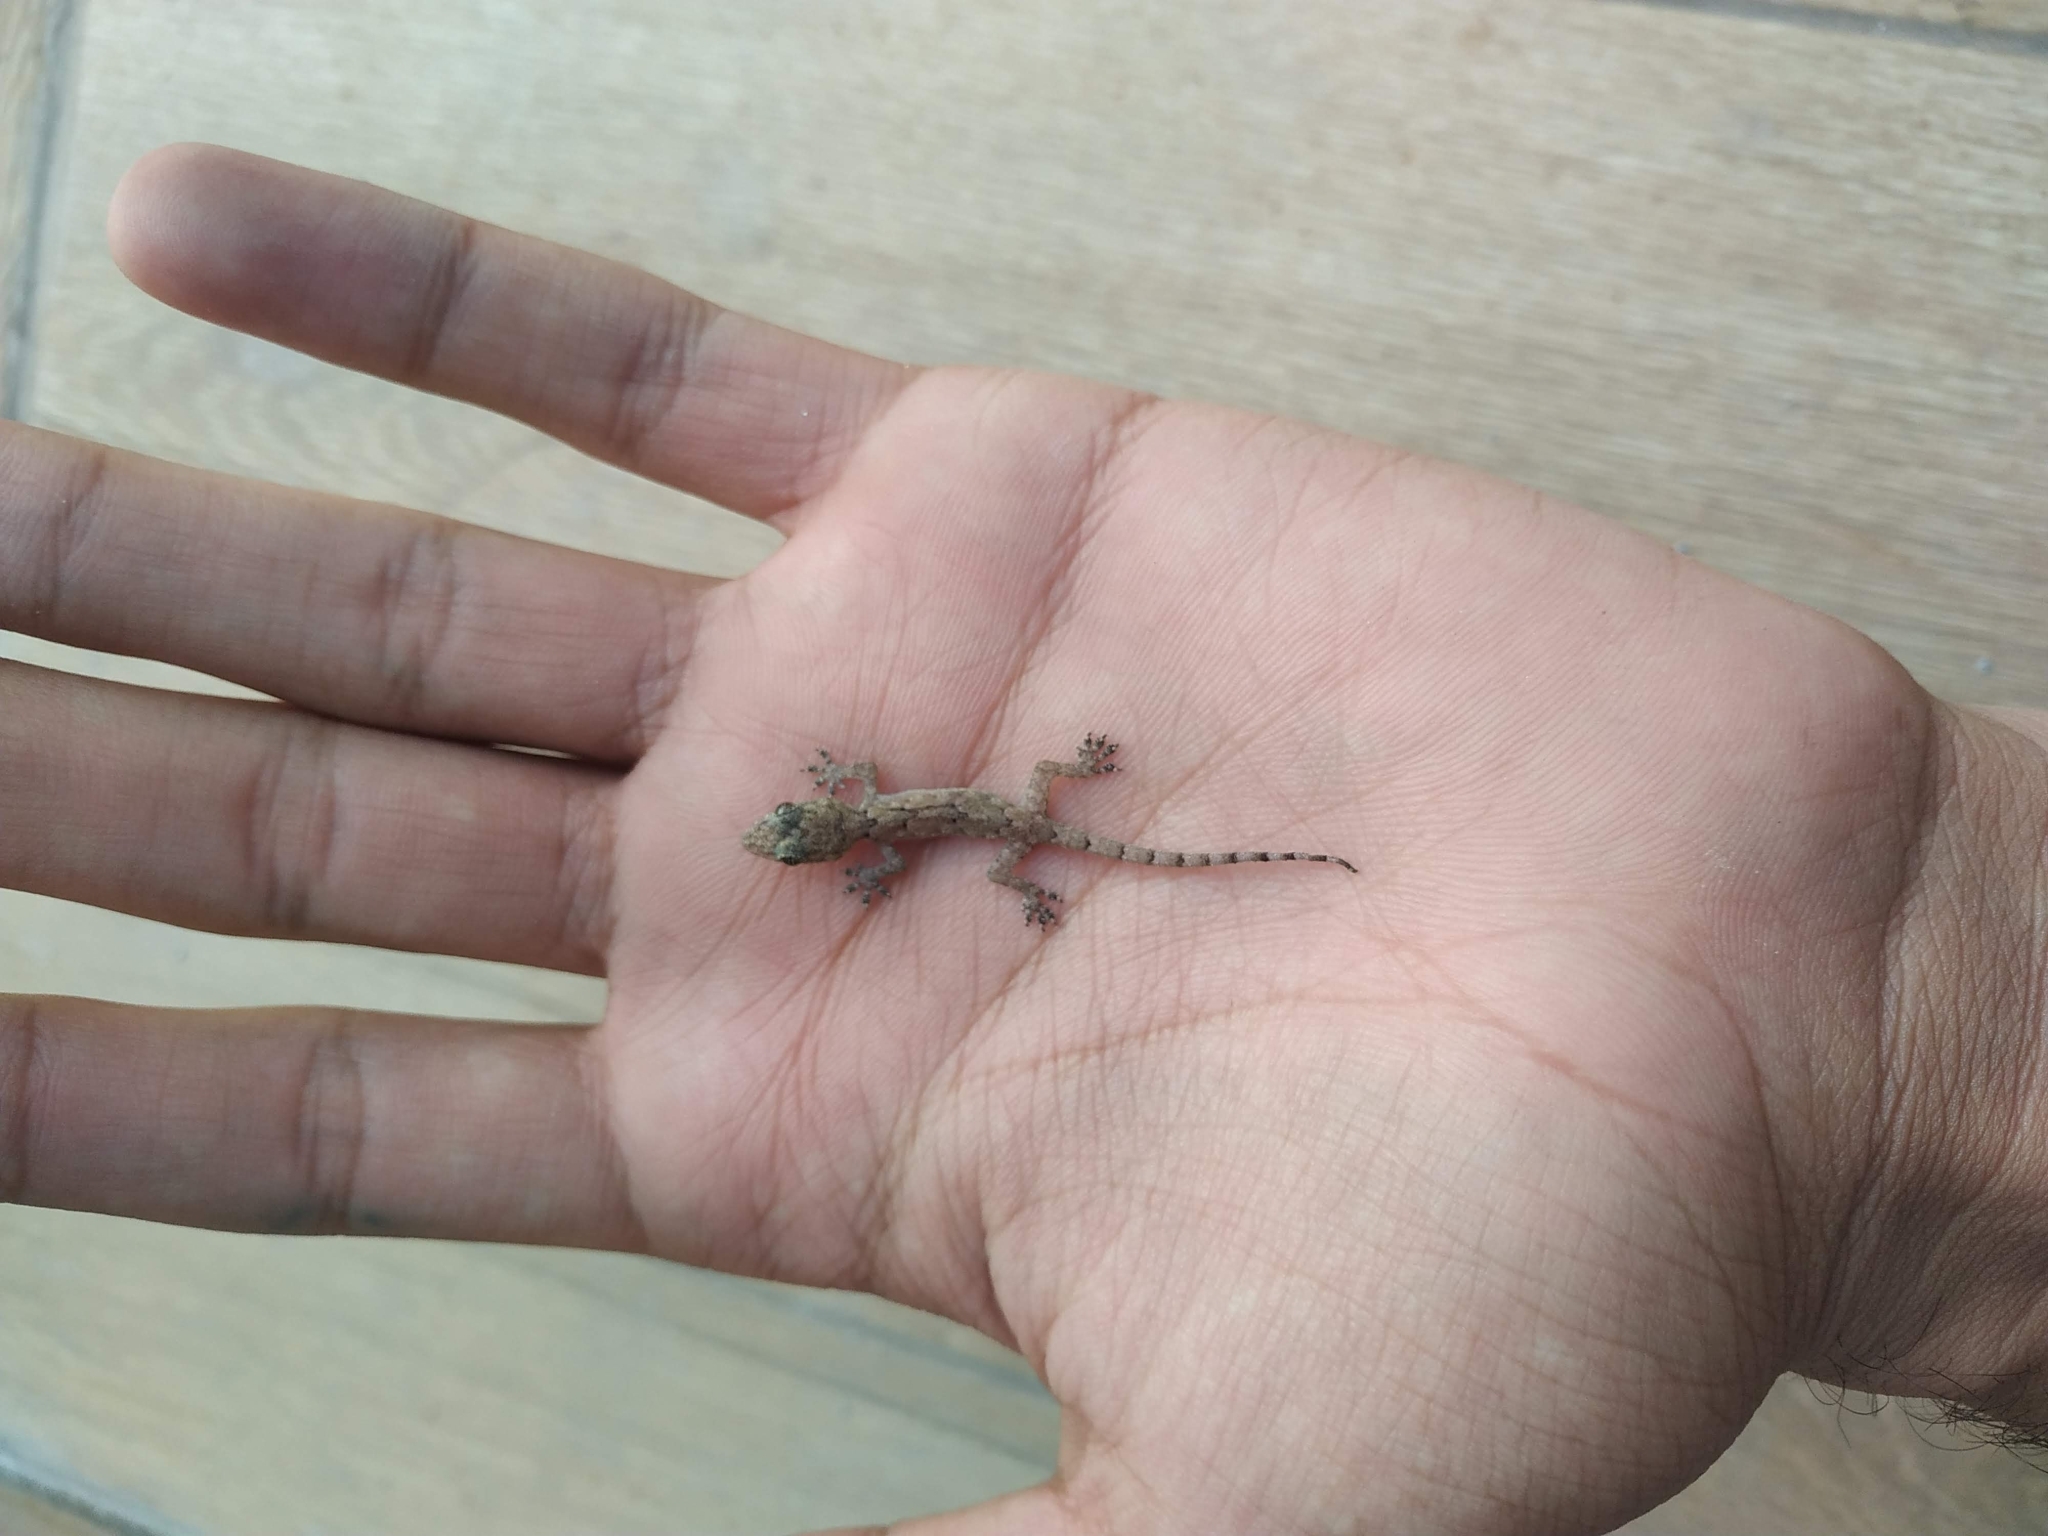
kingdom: Animalia
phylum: Chordata
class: Squamata
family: Gekkonidae
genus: Hemidactylus
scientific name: Hemidactylus mabouia
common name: House gecko
